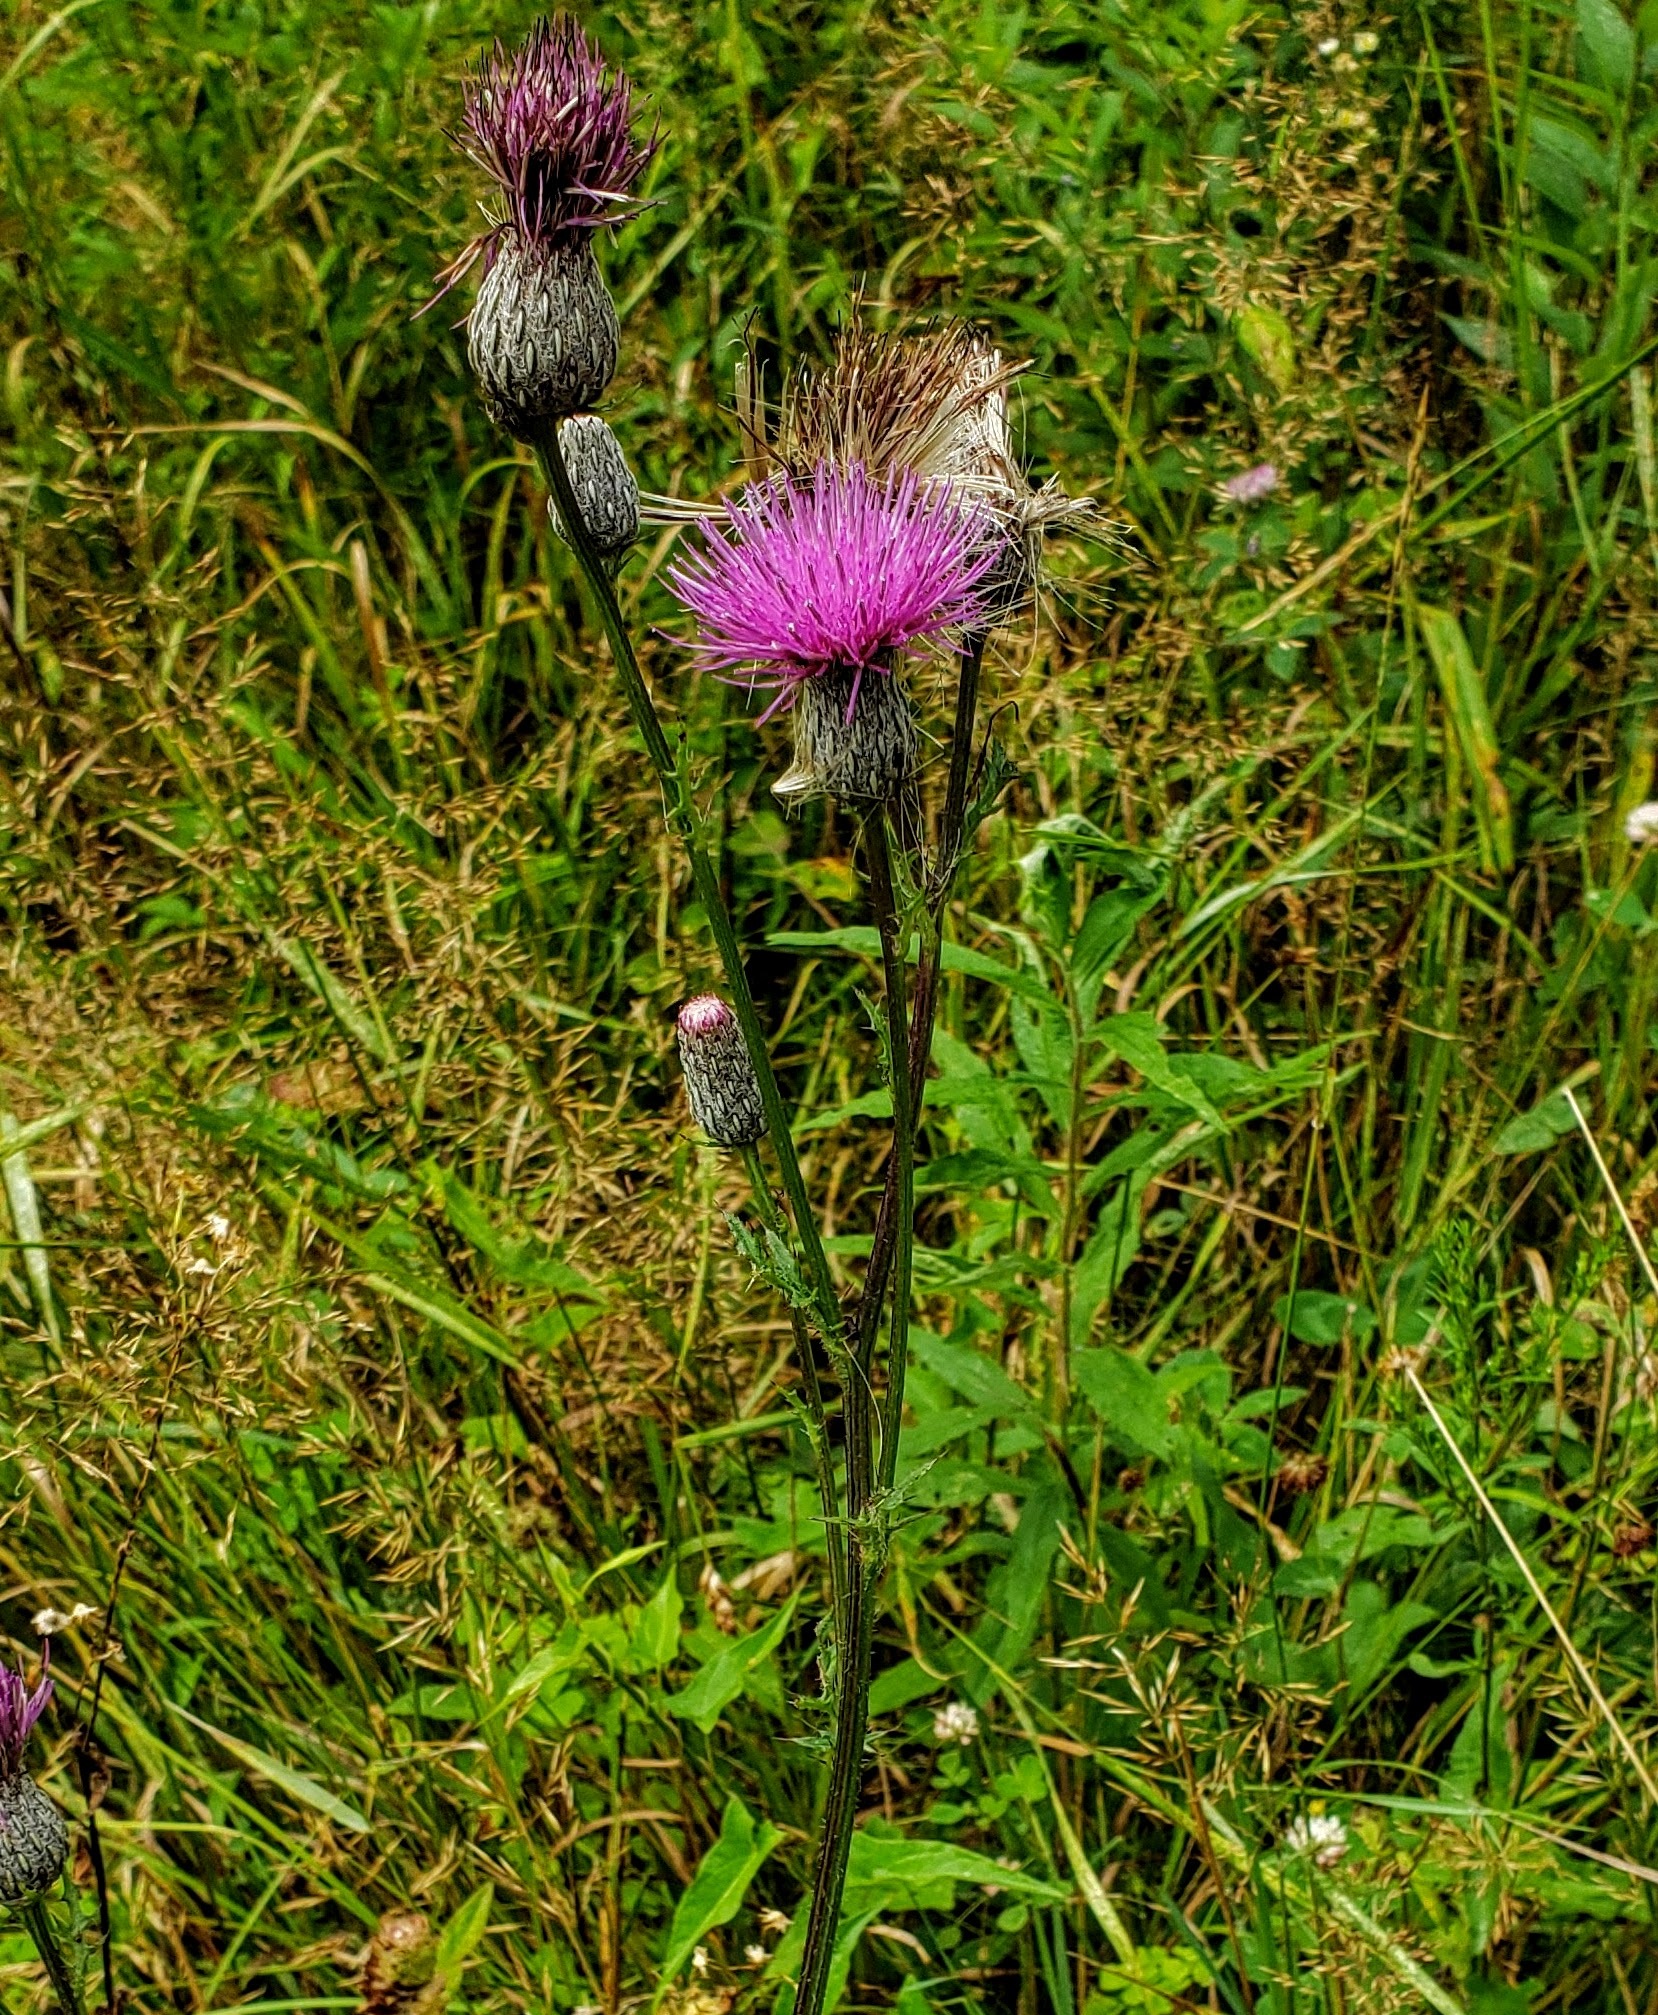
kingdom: Plantae
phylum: Tracheophyta
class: Magnoliopsida
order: Asterales
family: Asteraceae
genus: Cirsium
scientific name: Cirsium muticum
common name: Dunce-nettle
